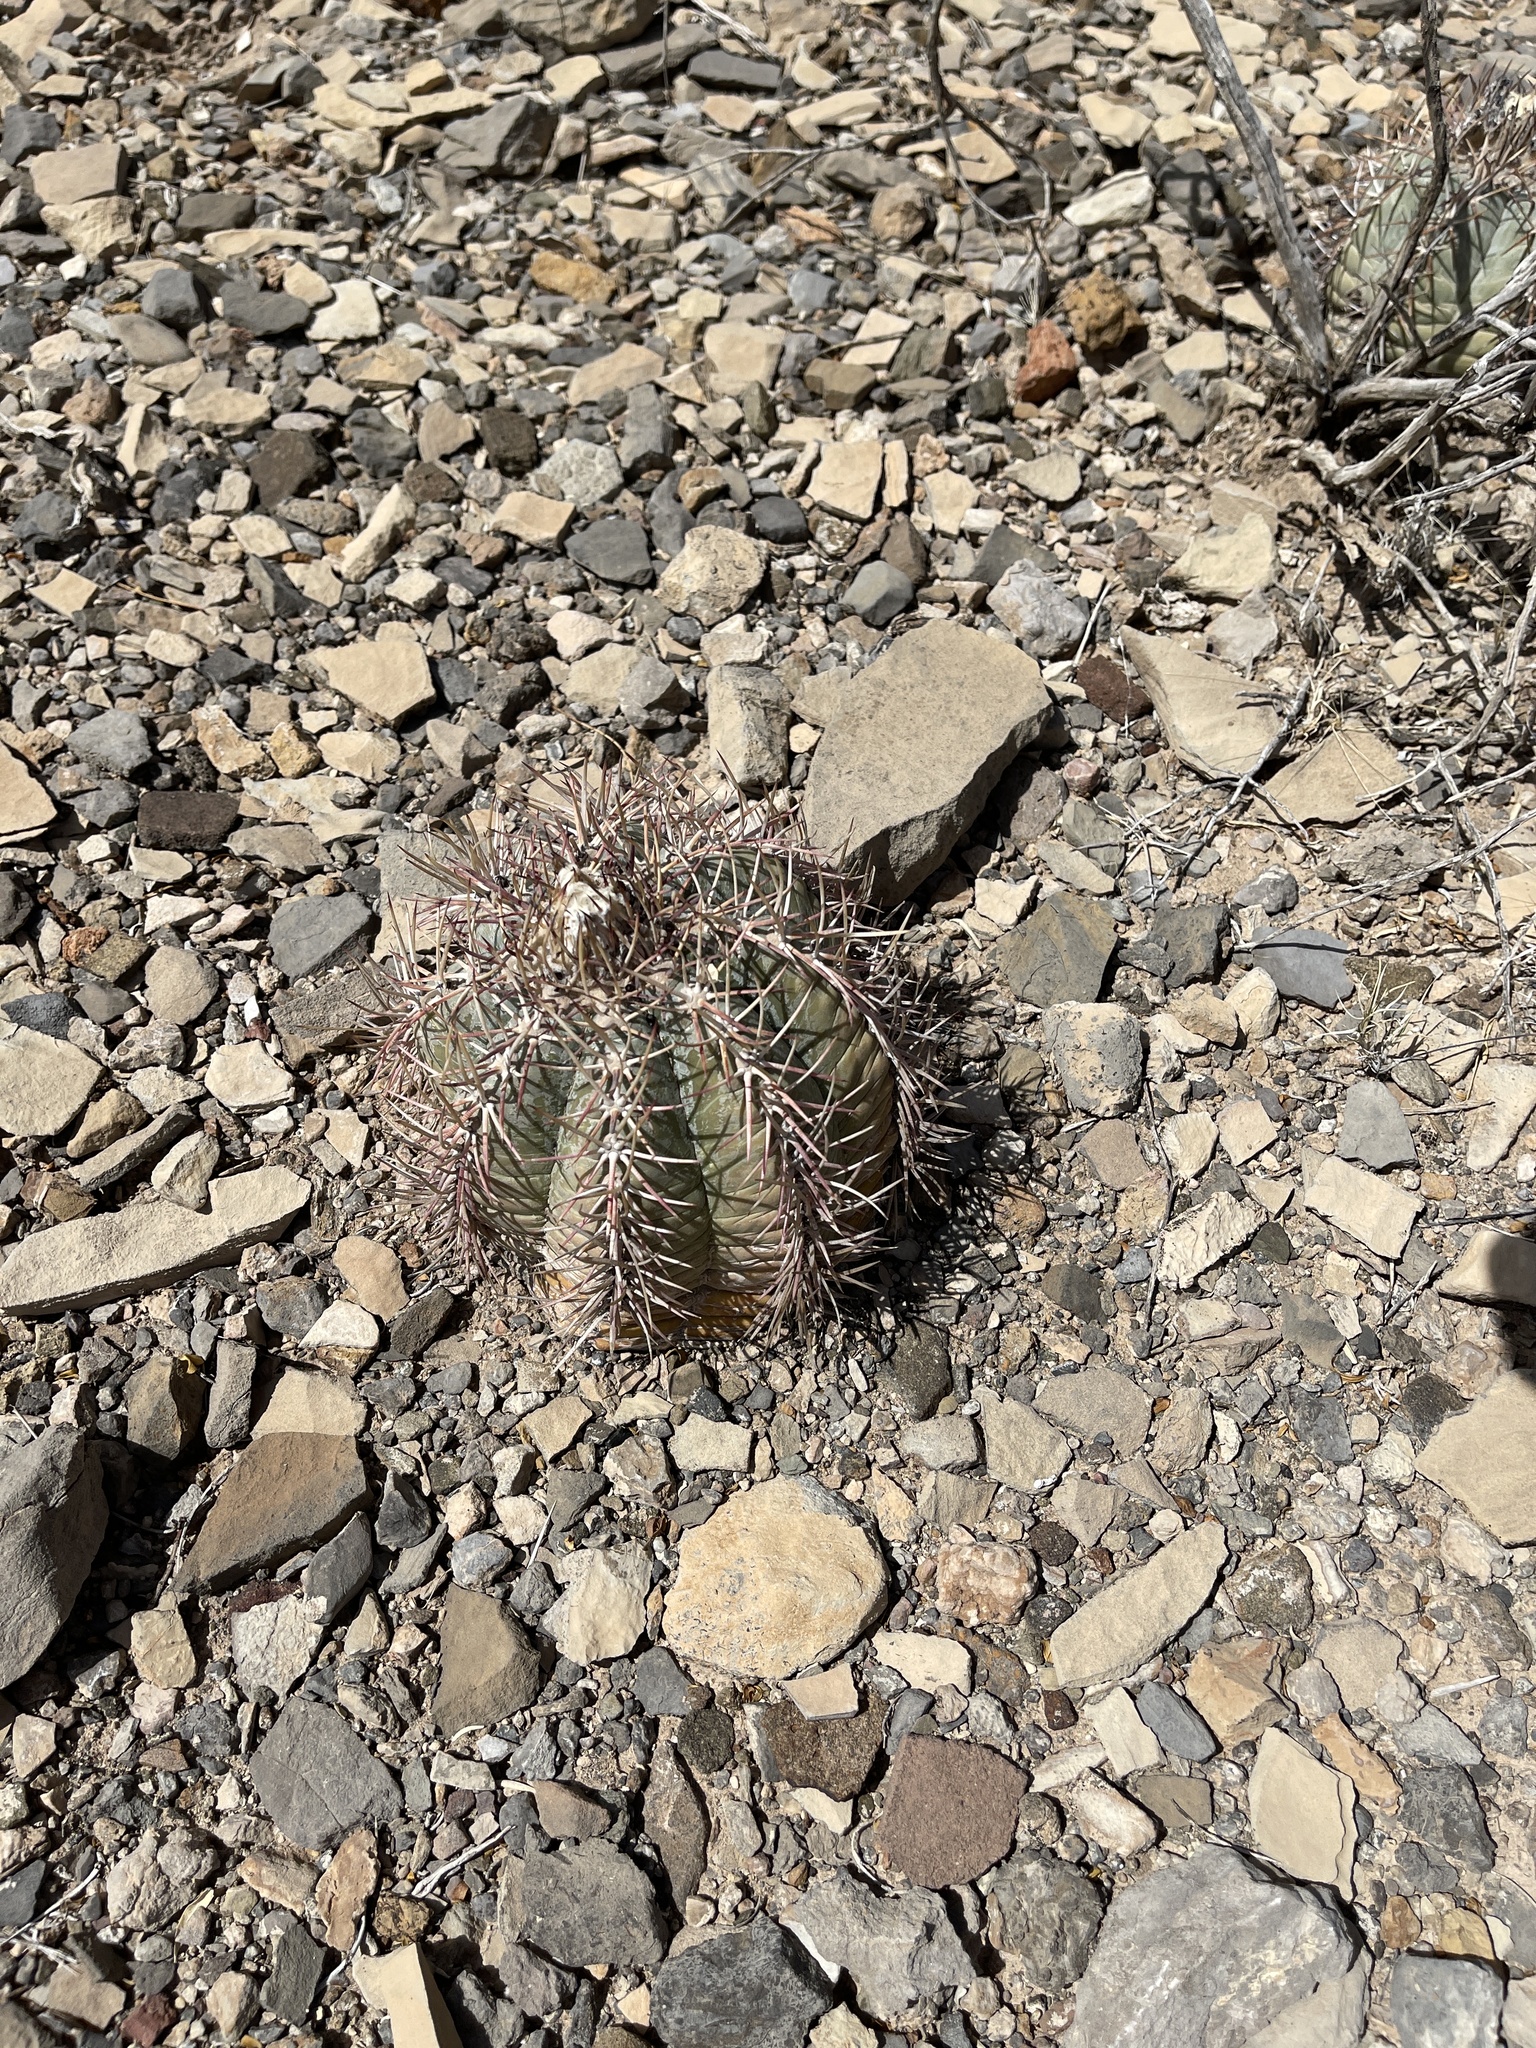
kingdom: Plantae
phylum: Tracheophyta
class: Magnoliopsida
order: Caryophyllales
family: Cactaceae
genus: Echinocactus
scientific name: Echinocactus horizonthalonius
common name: Devilshead
